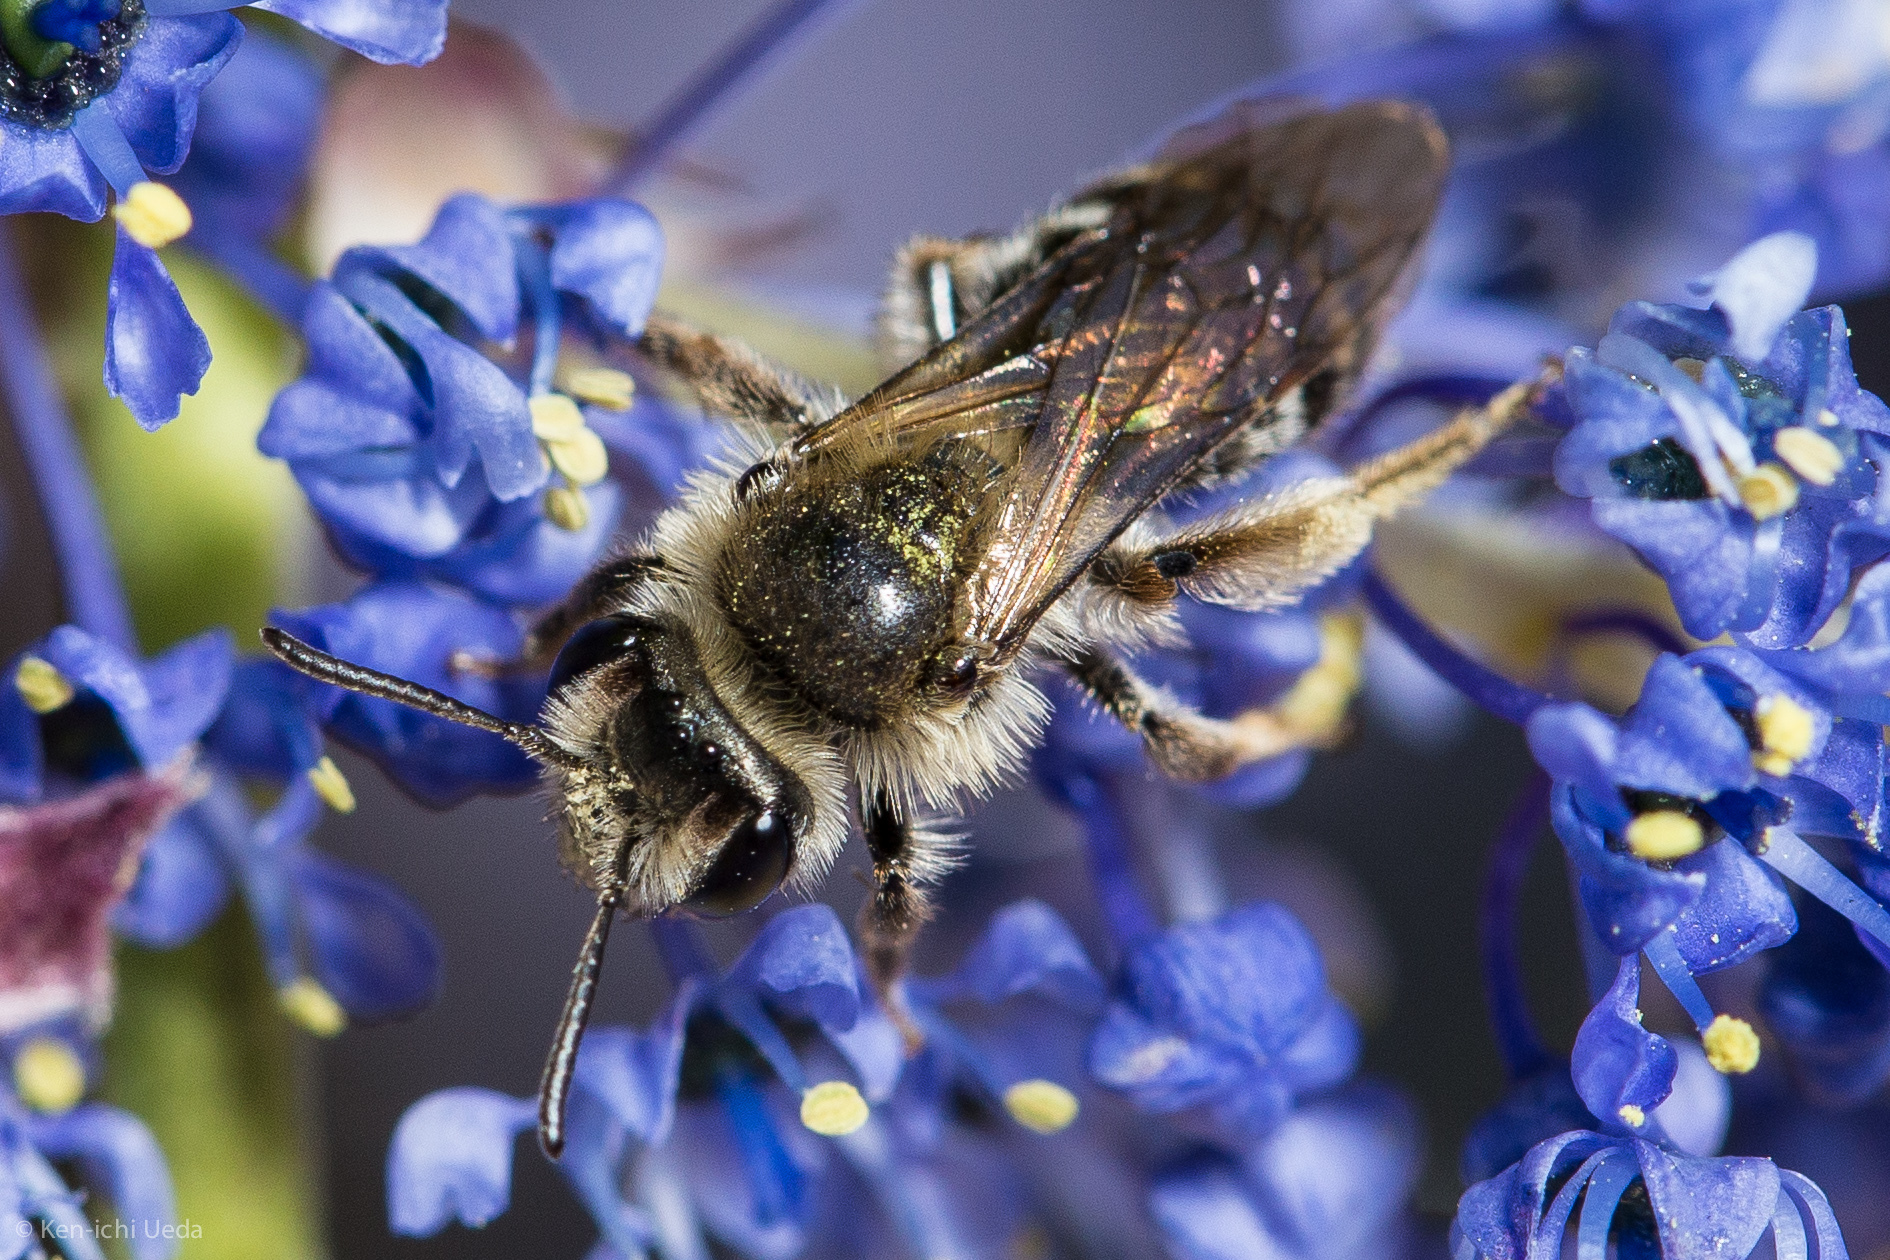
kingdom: Animalia
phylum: Arthropoda
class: Insecta
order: Hymenoptera
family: Andrenidae
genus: Andrena
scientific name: Andrena
